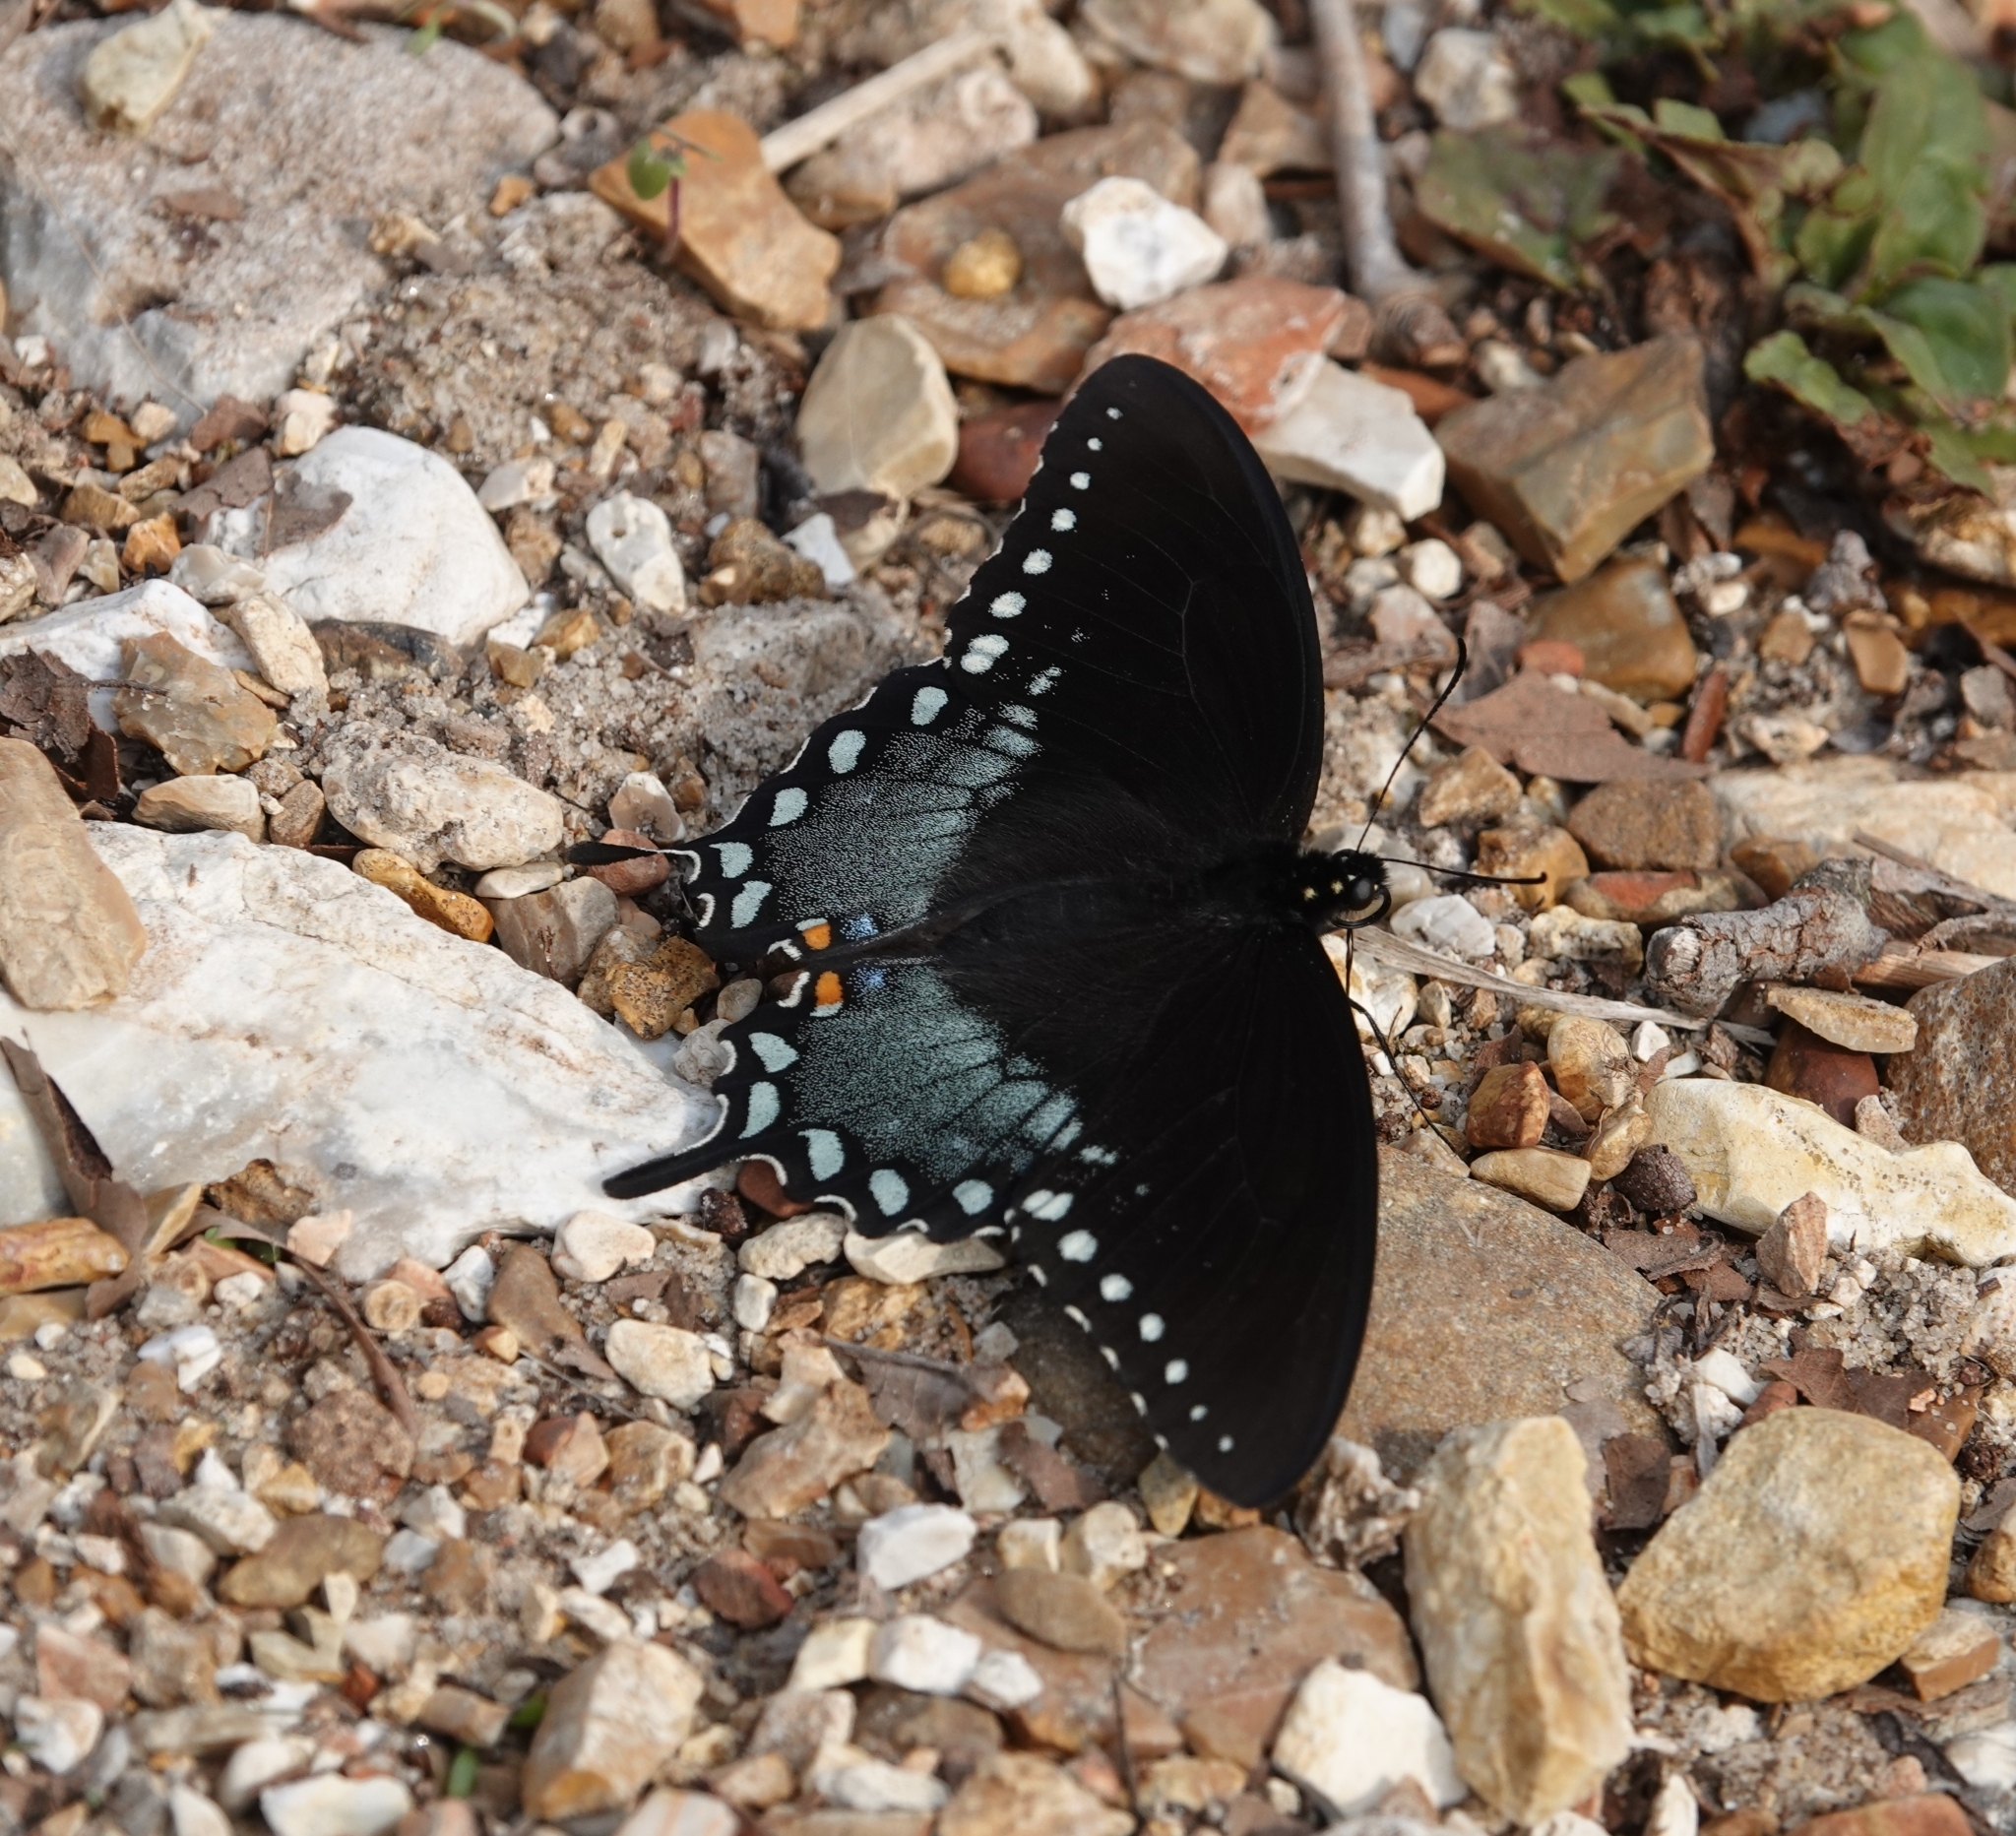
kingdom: Animalia
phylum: Arthropoda
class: Insecta
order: Lepidoptera
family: Papilionidae
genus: Papilio
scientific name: Papilio troilus
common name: Spicebush swallowtail
